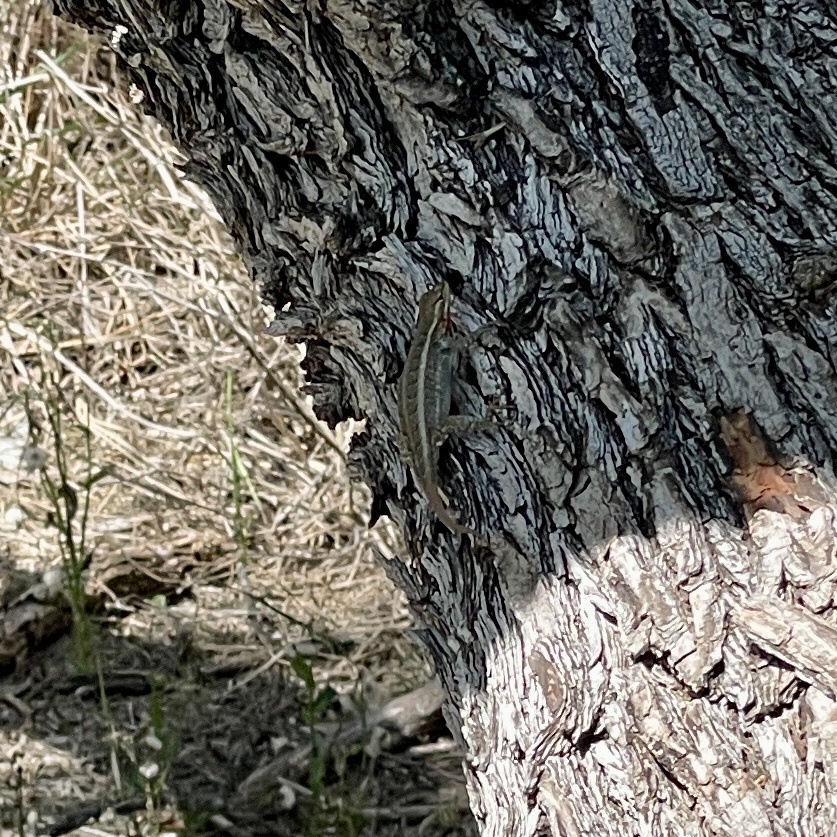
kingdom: Animalia
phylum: Chordata
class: Squamata
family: Phrynosomatidae
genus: Sceloporus
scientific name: Sceloporus variabilis
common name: Rosebelly lizard
